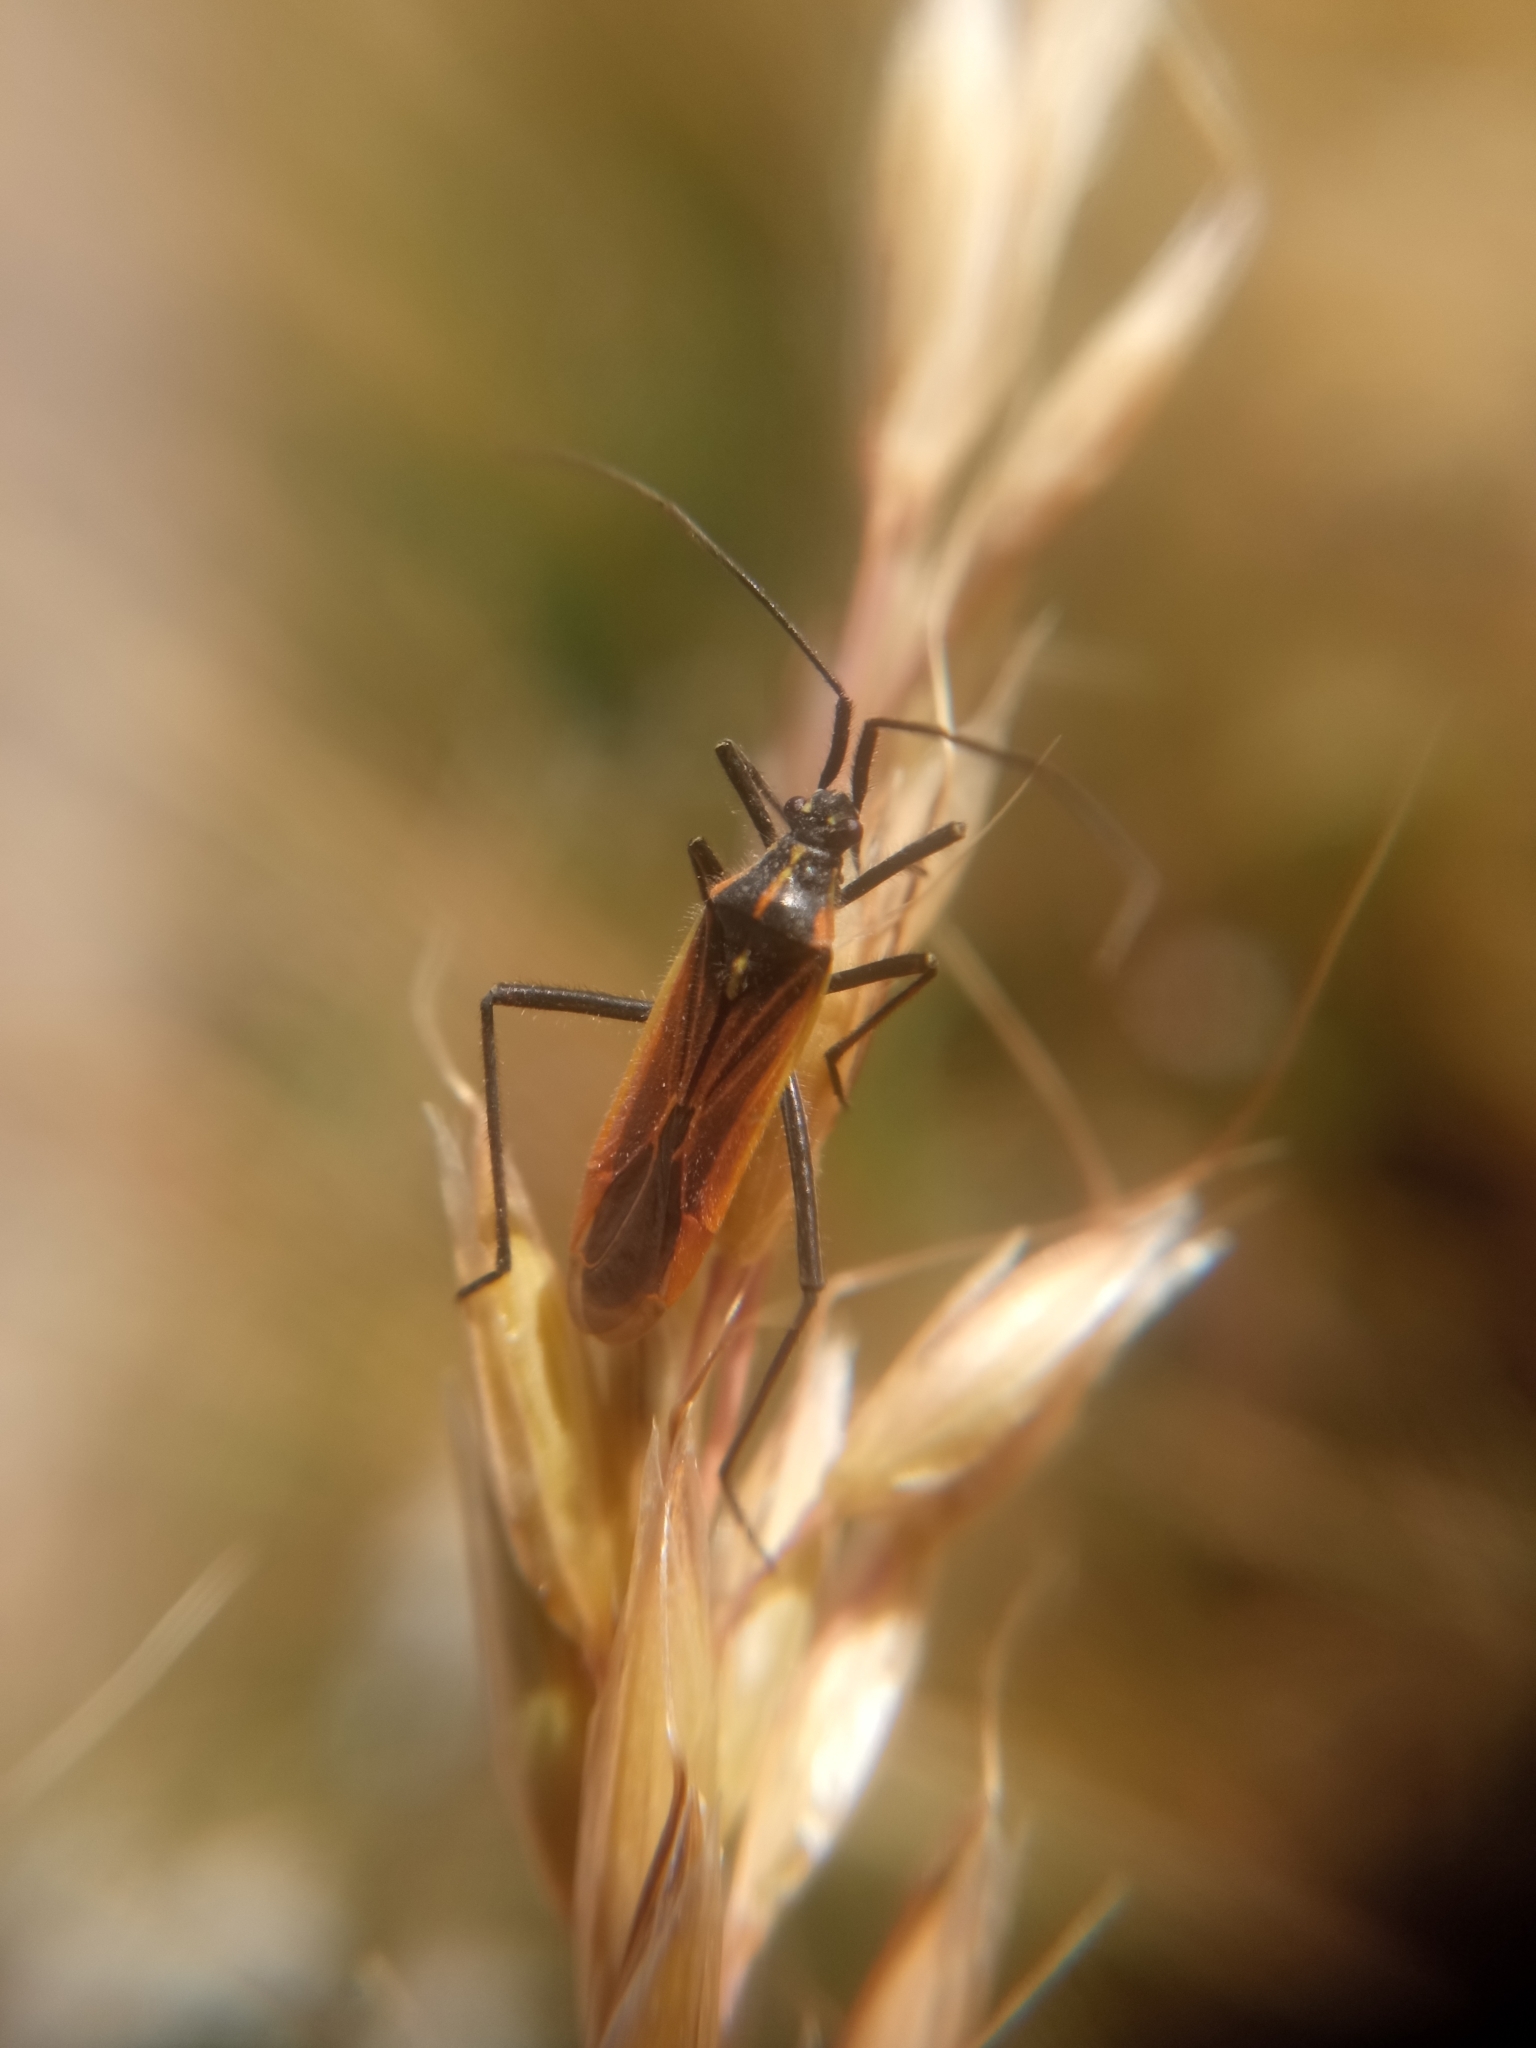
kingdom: Animalia
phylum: Arthropoda
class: Insecta
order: Hemiptera
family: Miridae
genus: Leptopterna
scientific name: Leptopterna dolabrata
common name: Meadow plant bug
